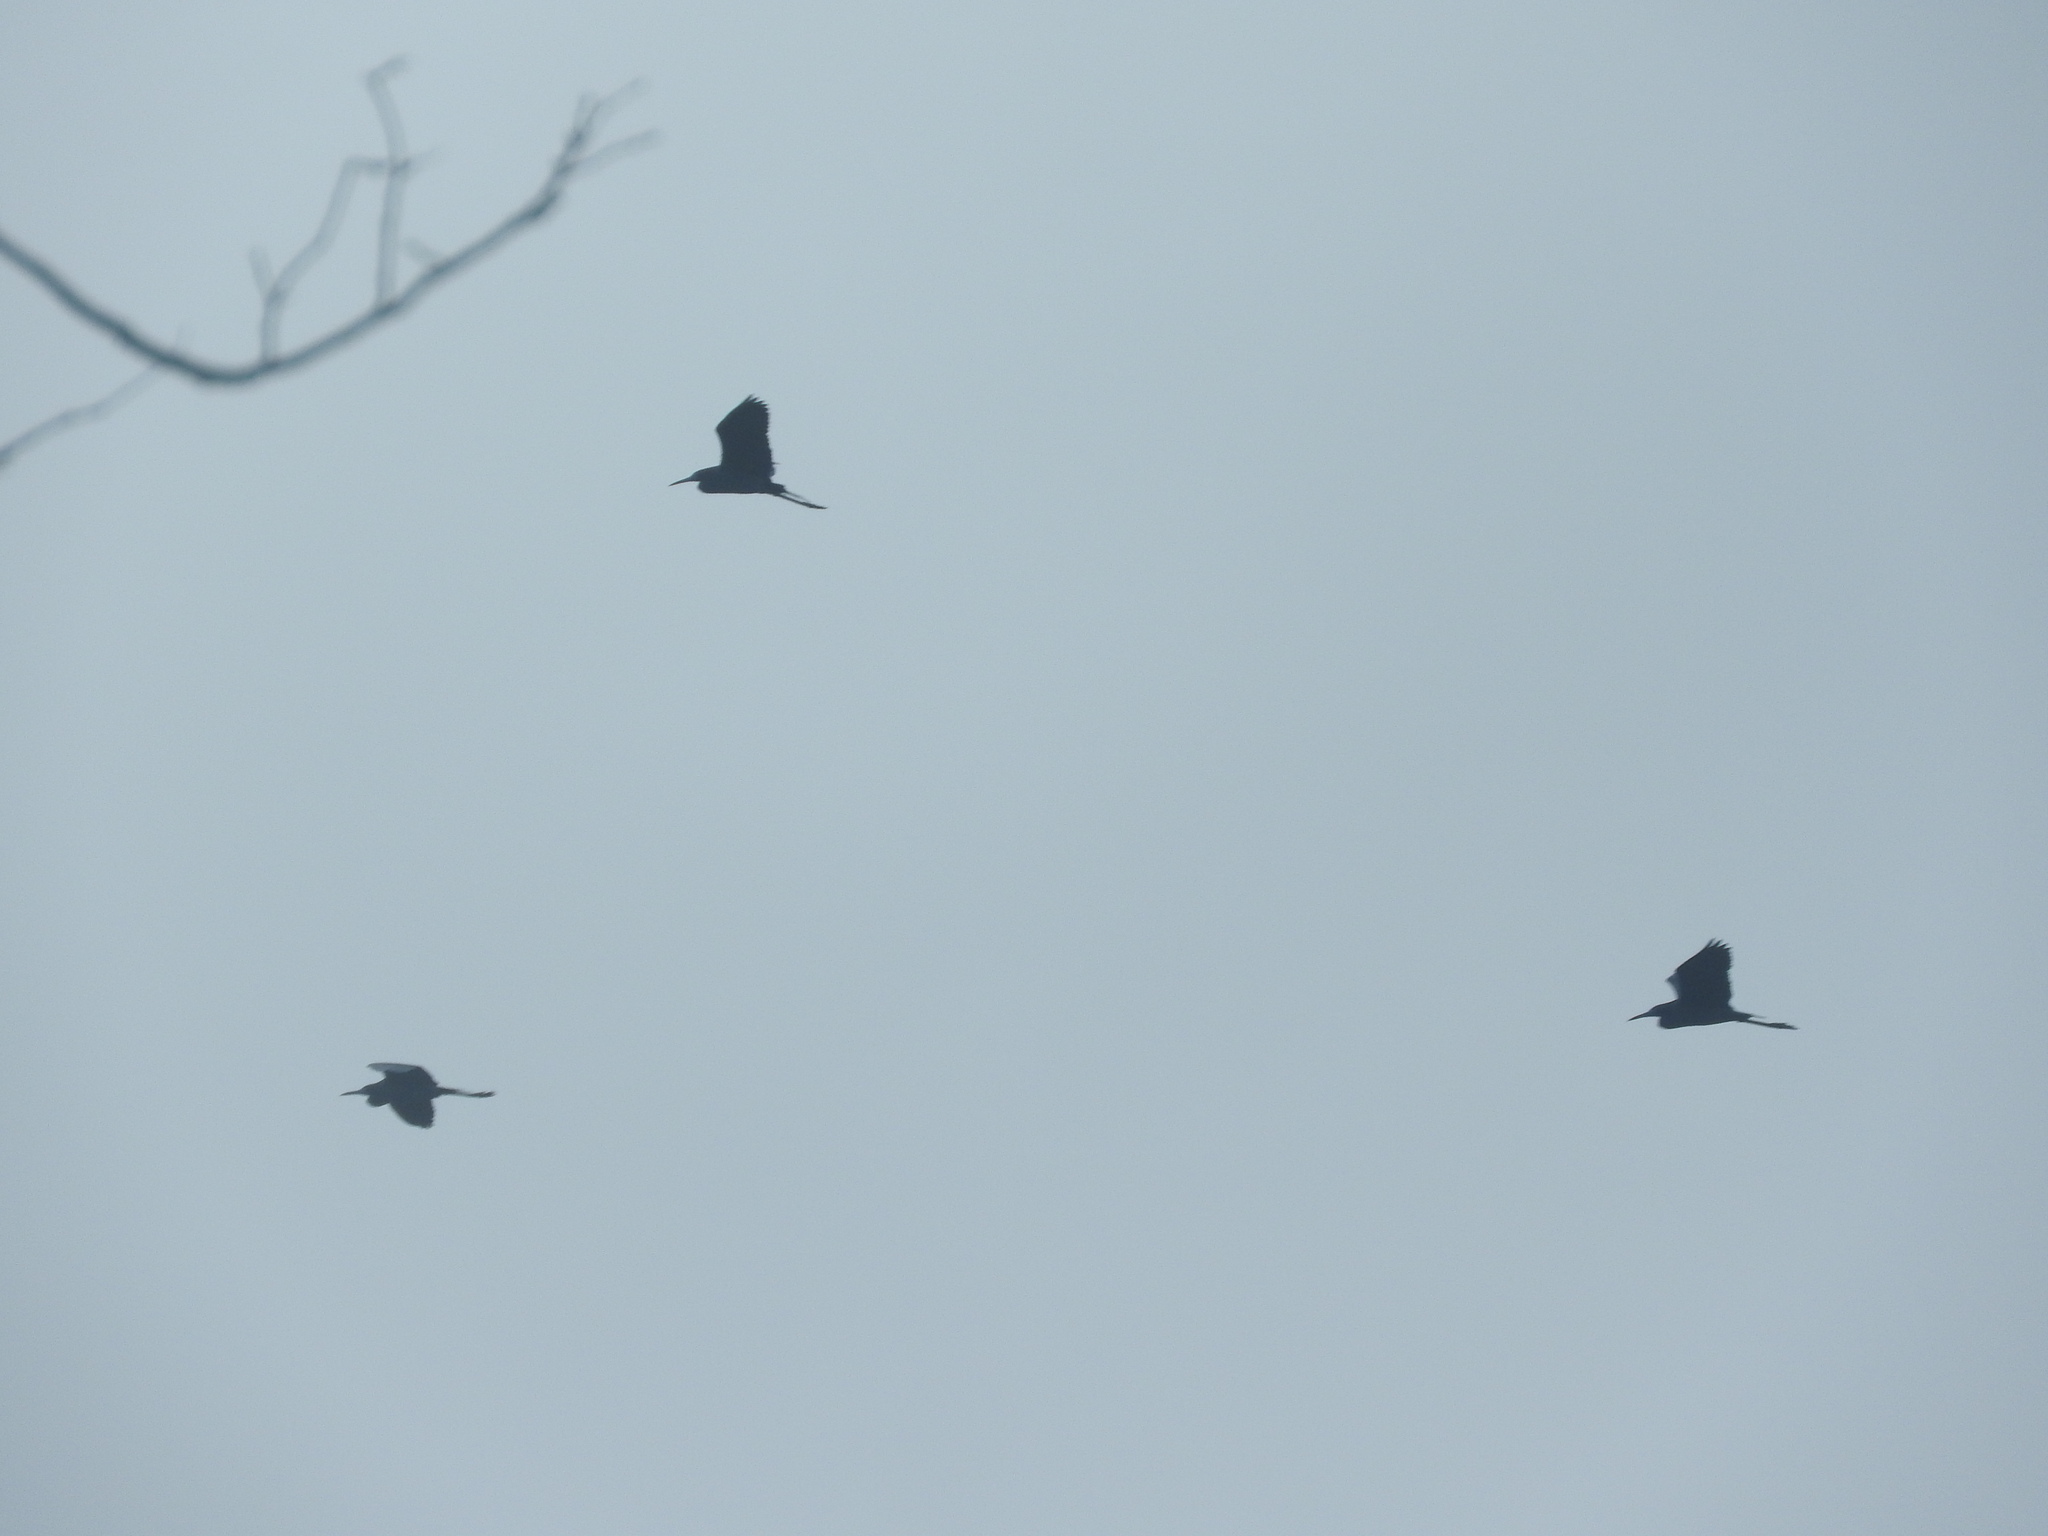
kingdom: Animalia
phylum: Chordata
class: Aves
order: Pelecaniformes
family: Ardeidae
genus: Egretta
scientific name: Egretta caerulea
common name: Little blue heron
